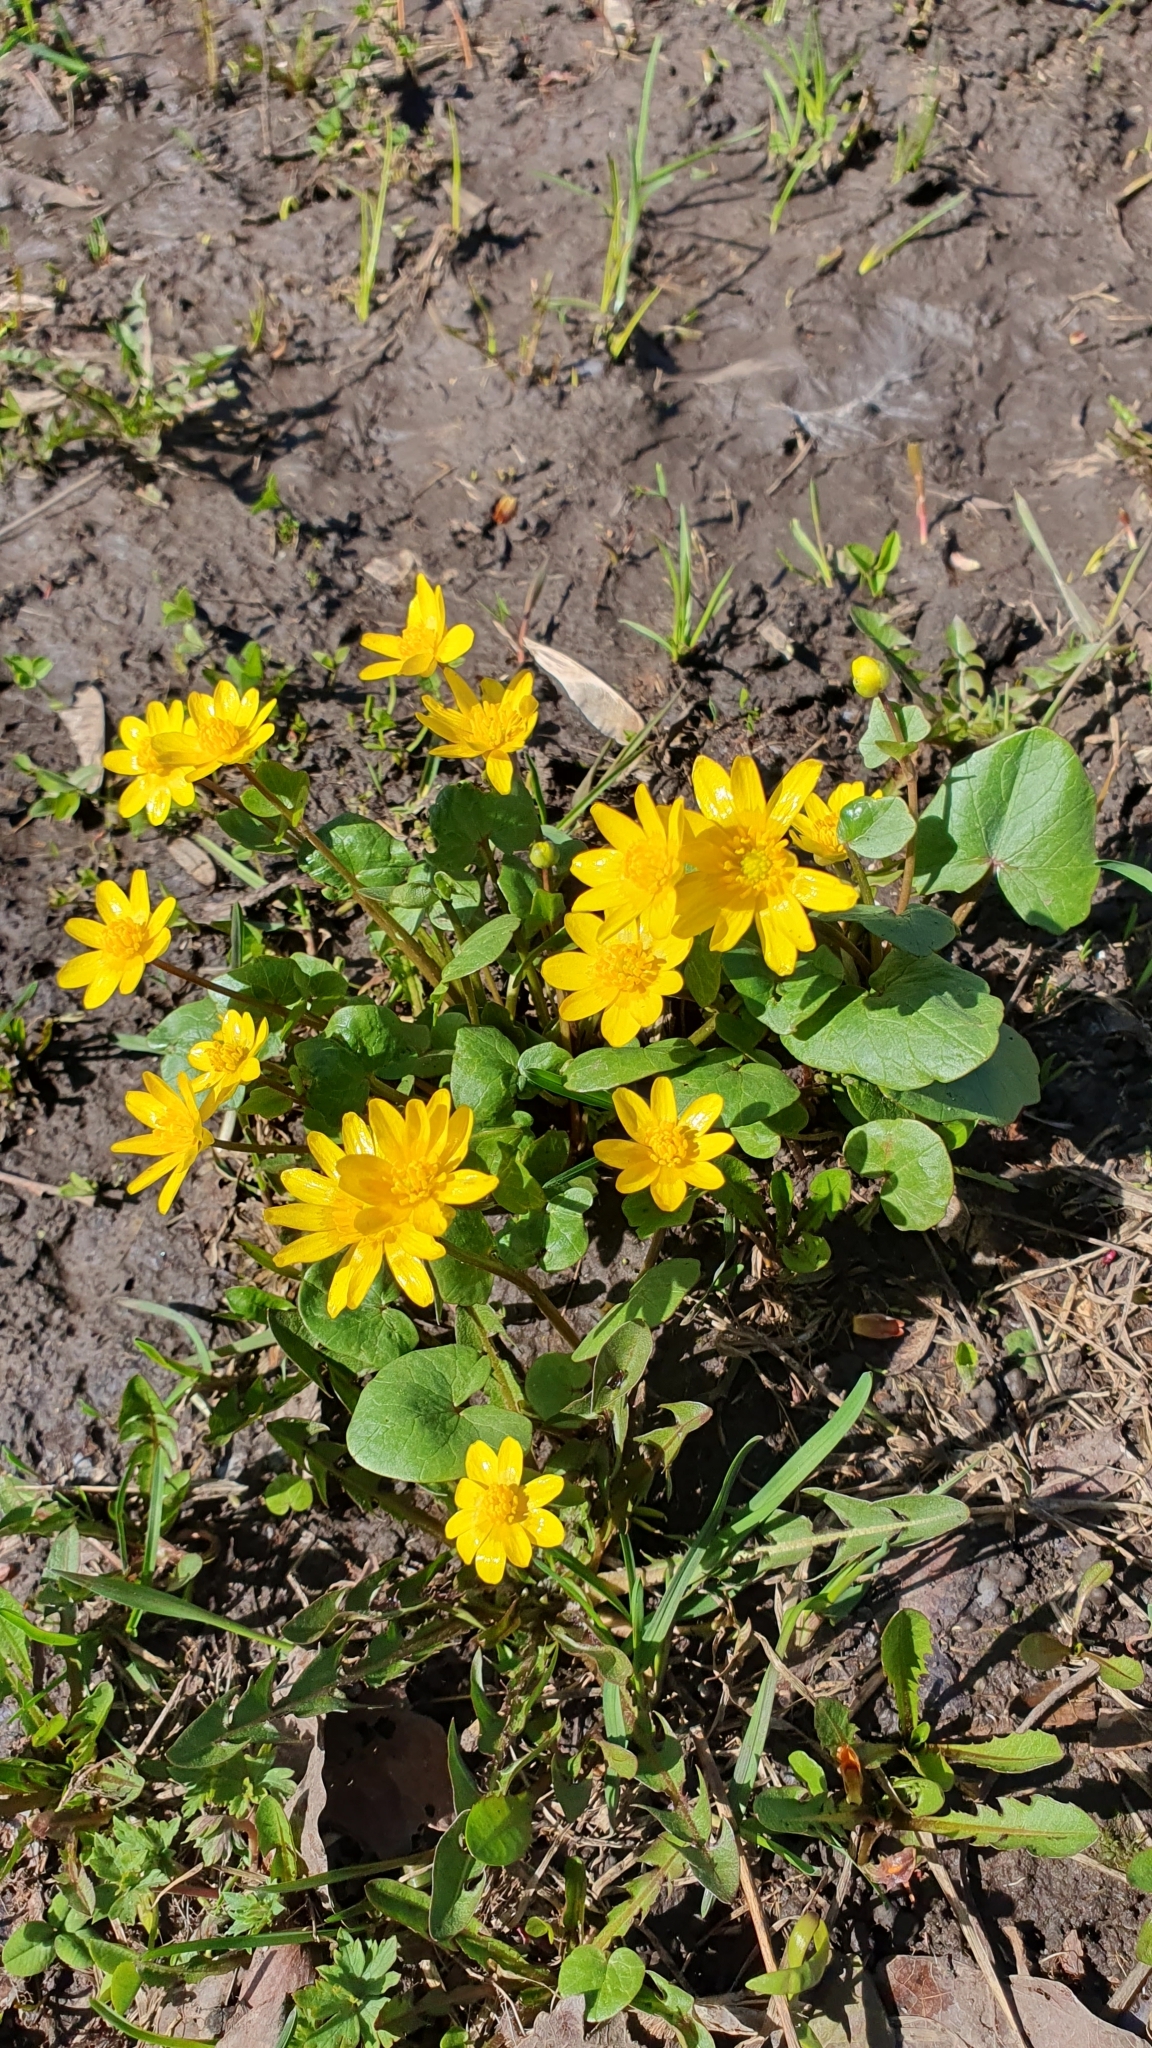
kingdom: Plantae
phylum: Tracheophyta
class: Magnoliopsida
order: Ranunculales
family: Ranunculaceae
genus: Ficaria
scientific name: Ficaria verna
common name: Lesser celandine
